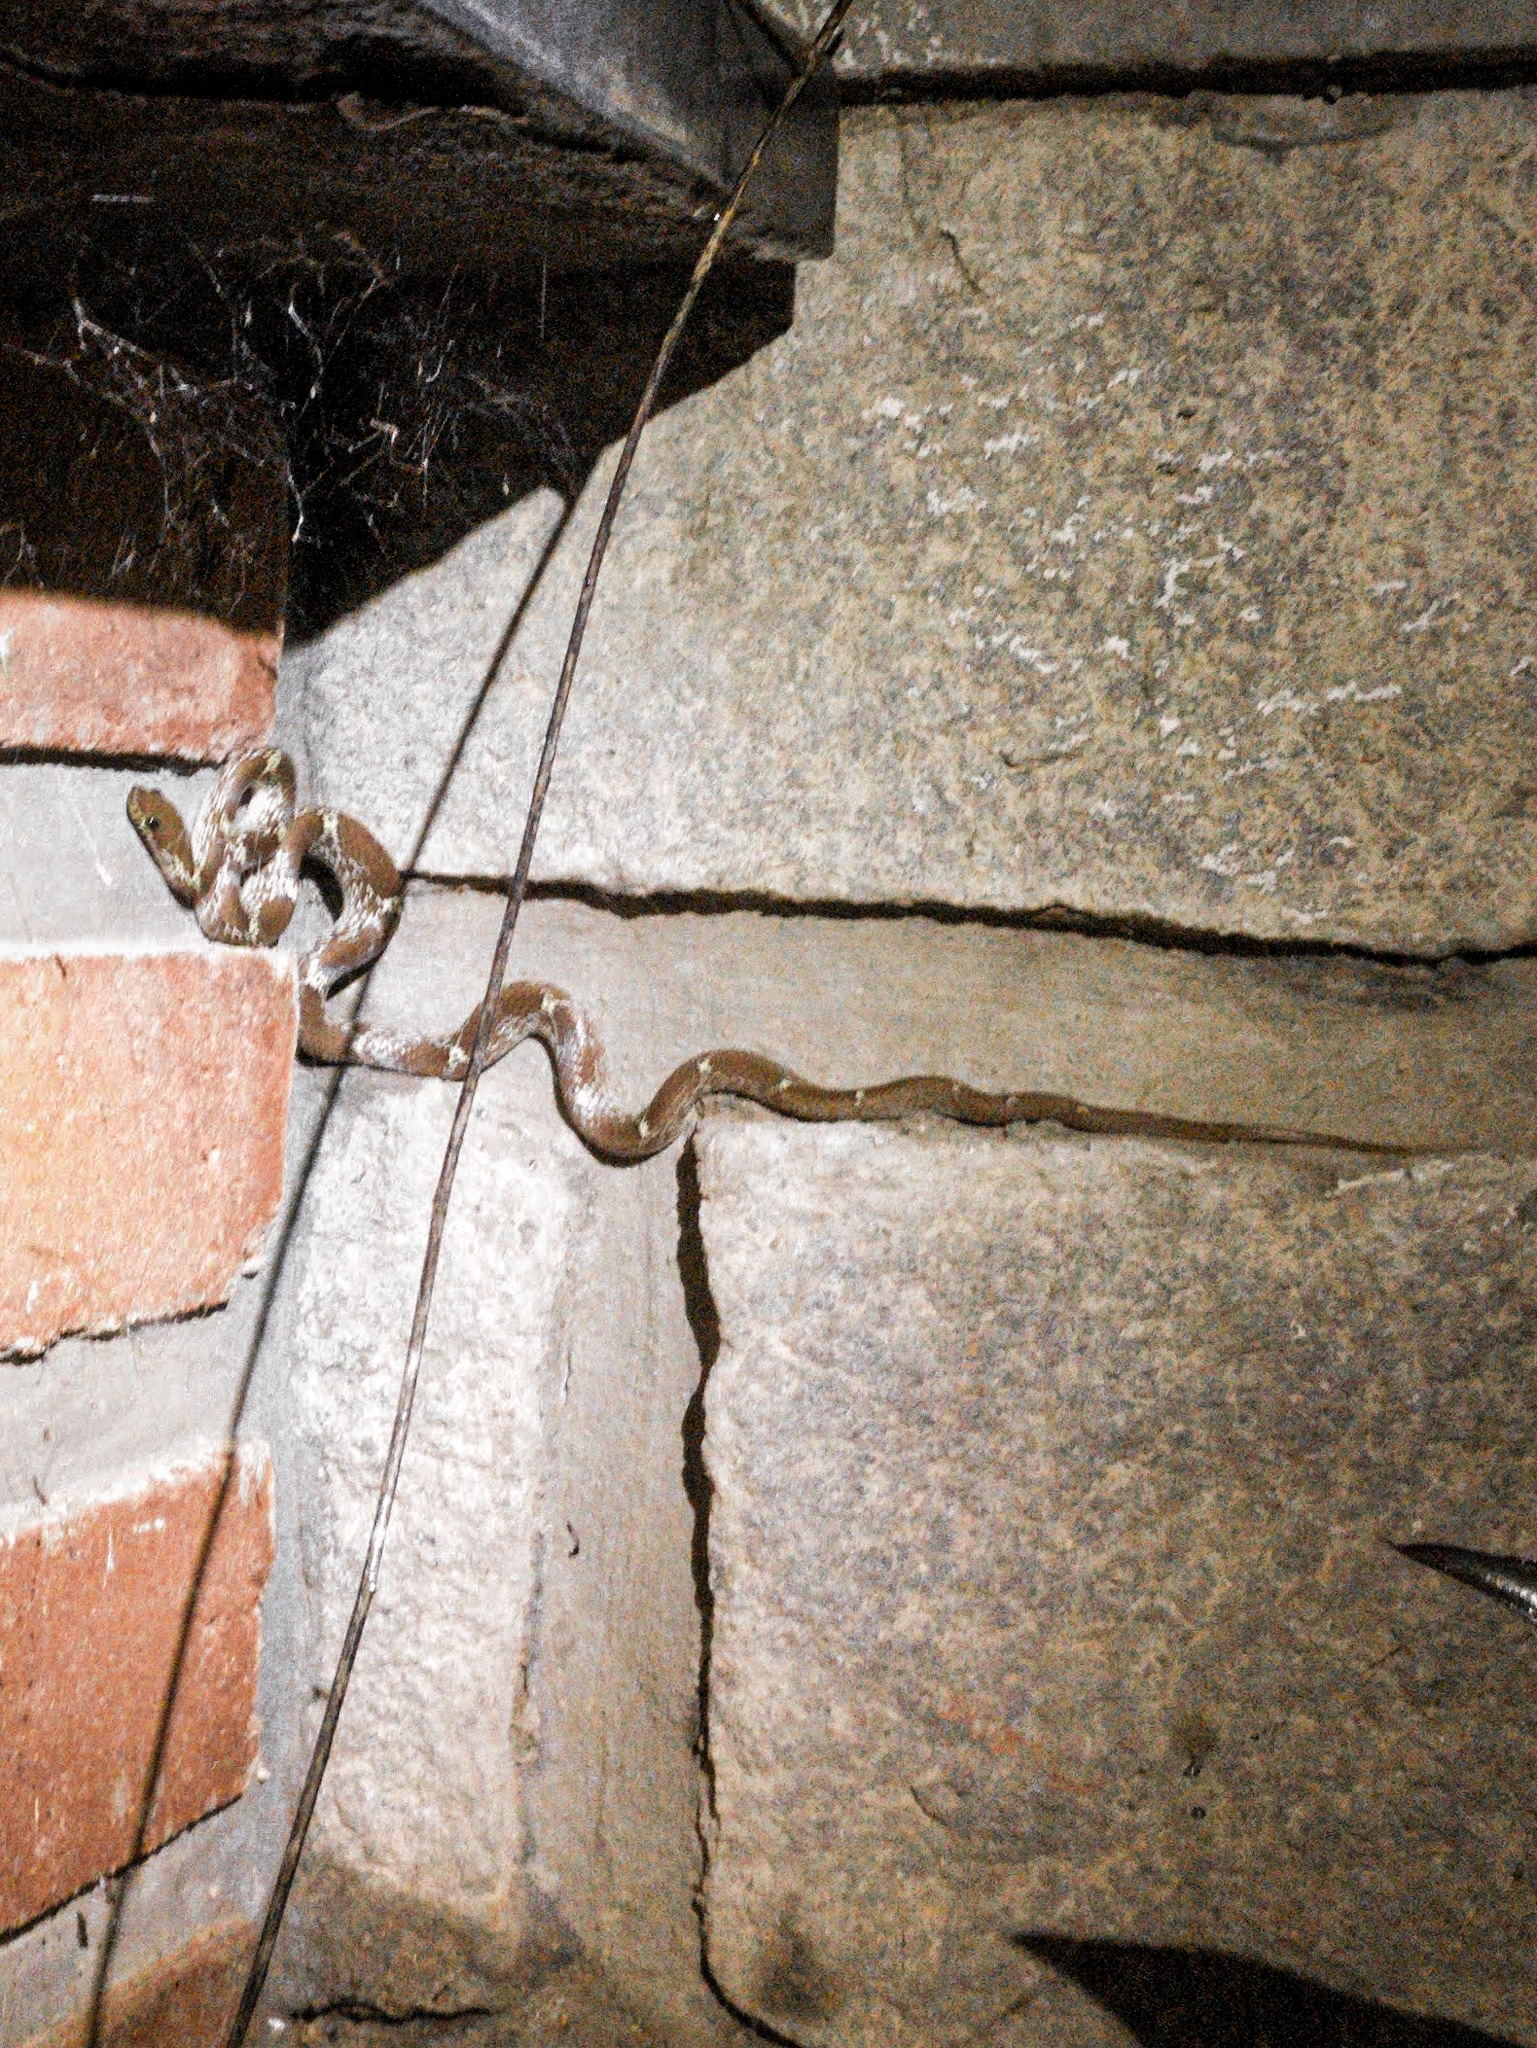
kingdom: Animalia
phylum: Chordata
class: Squamata
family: Colubridae
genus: Lycodon
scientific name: Lycodon fasciolatus
